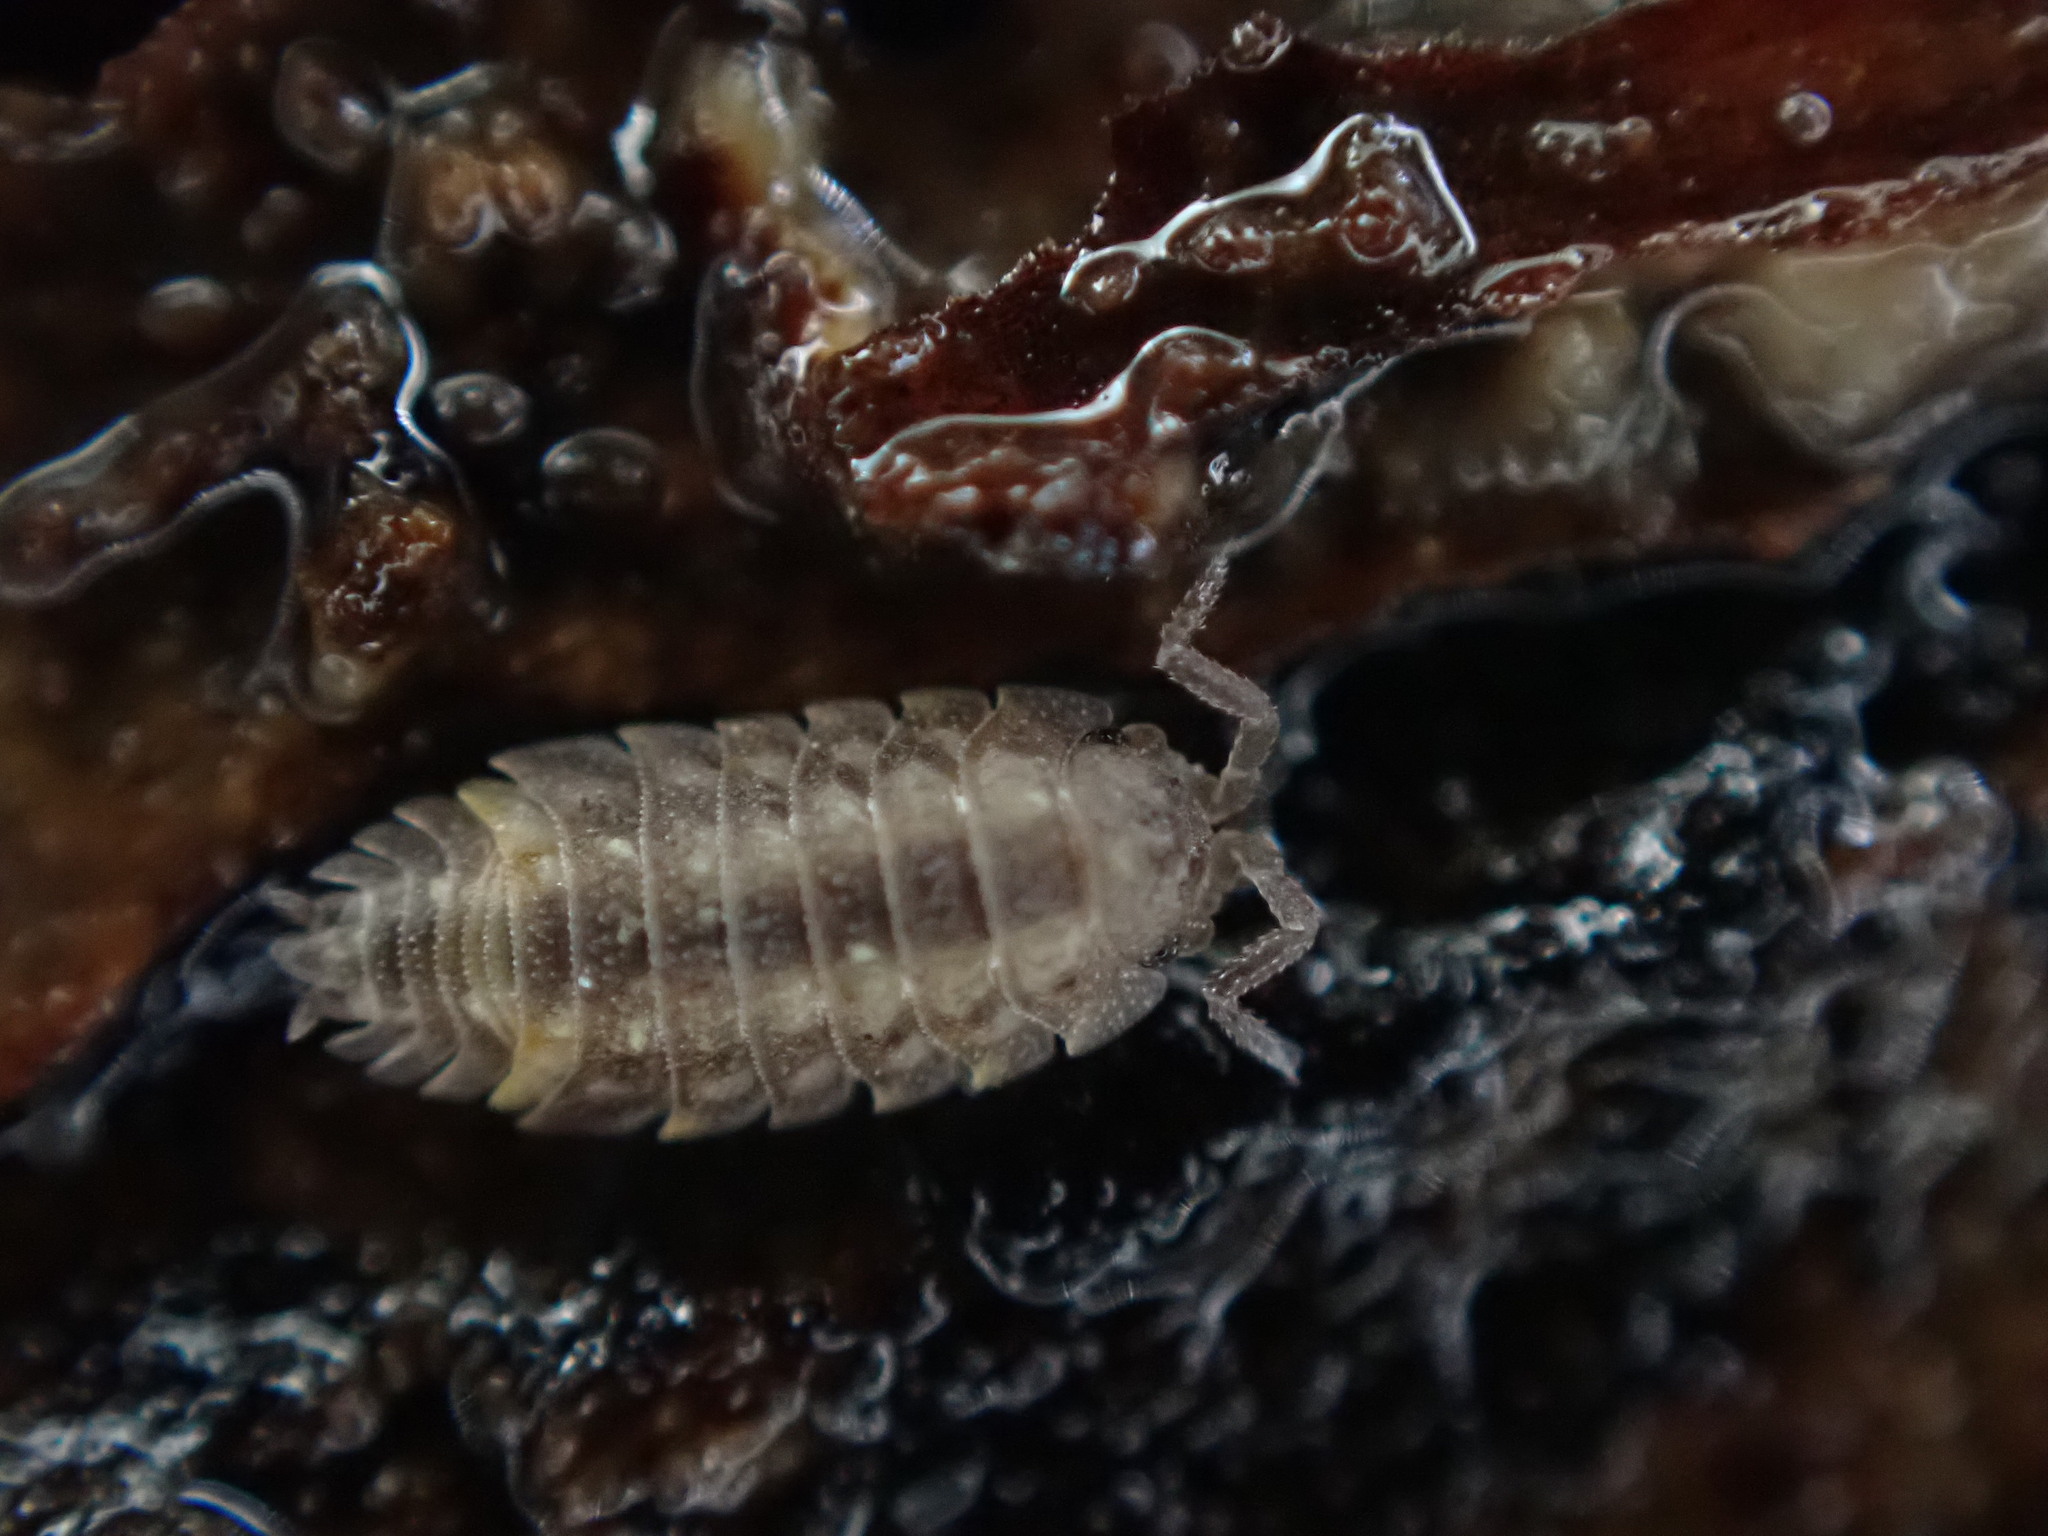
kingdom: Animalia
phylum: Arthropoda
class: Malacostraca
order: Isopoda
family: Oniscidae
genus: Oniscus
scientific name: Oniscus asellus
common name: Common shiny woodlouse
